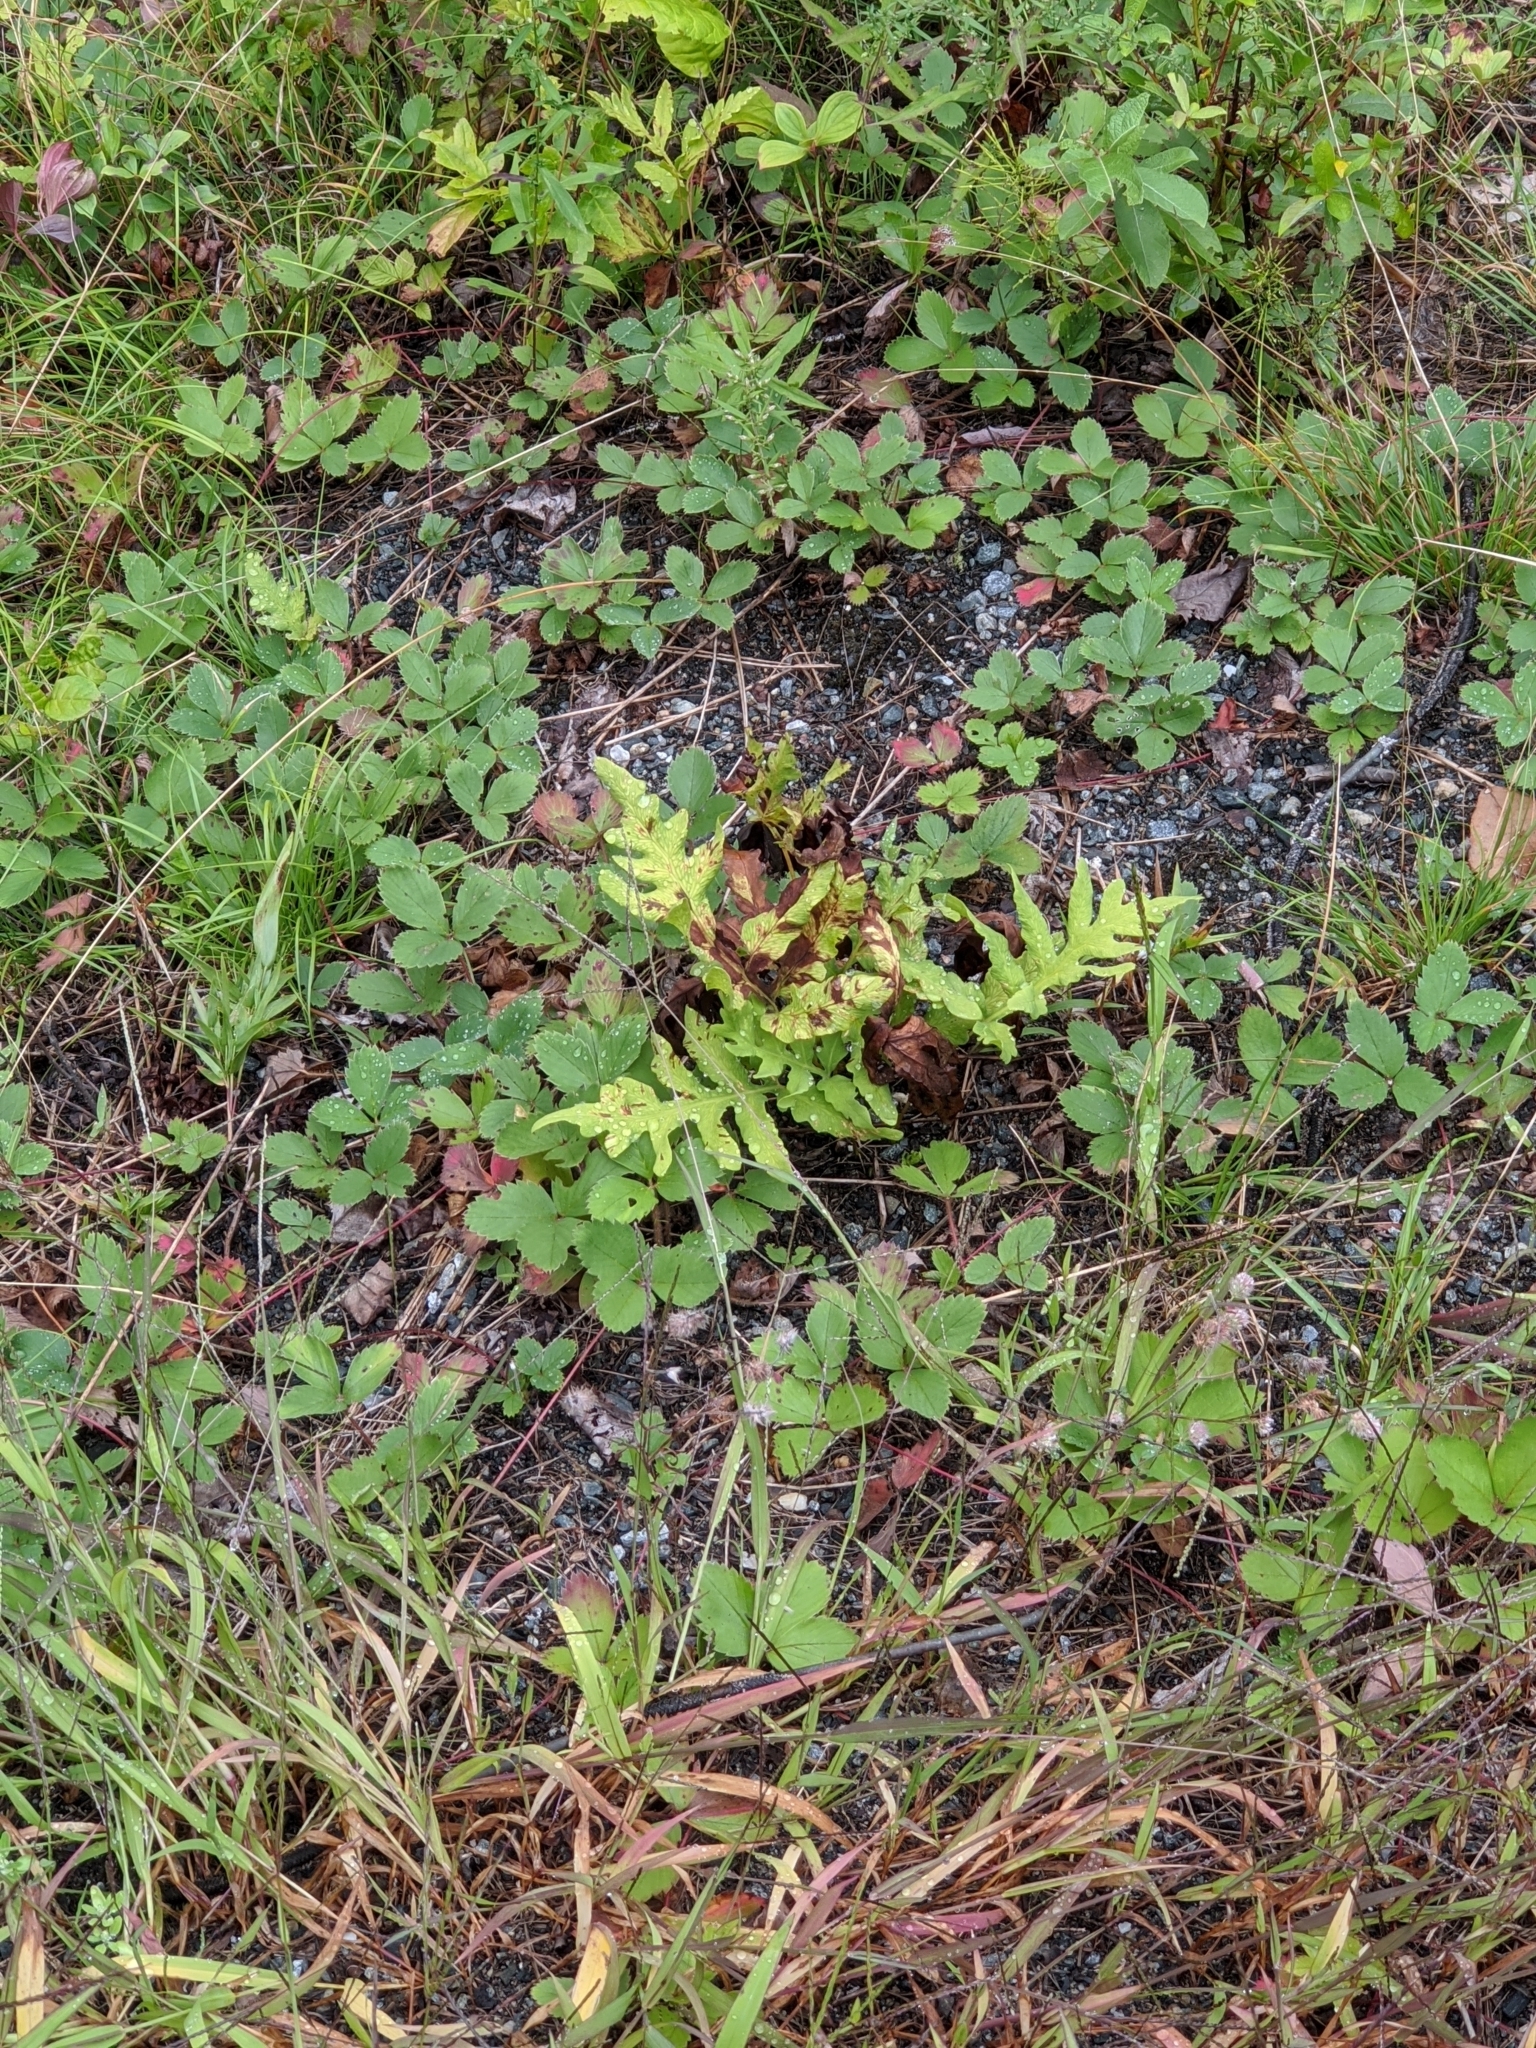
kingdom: Plantae
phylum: Tracheophyta
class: Polypodiopsida
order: Polypodiales
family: Onocleaceae
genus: Onoclea
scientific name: Onoclea sensibilis
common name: Sensitive fern
